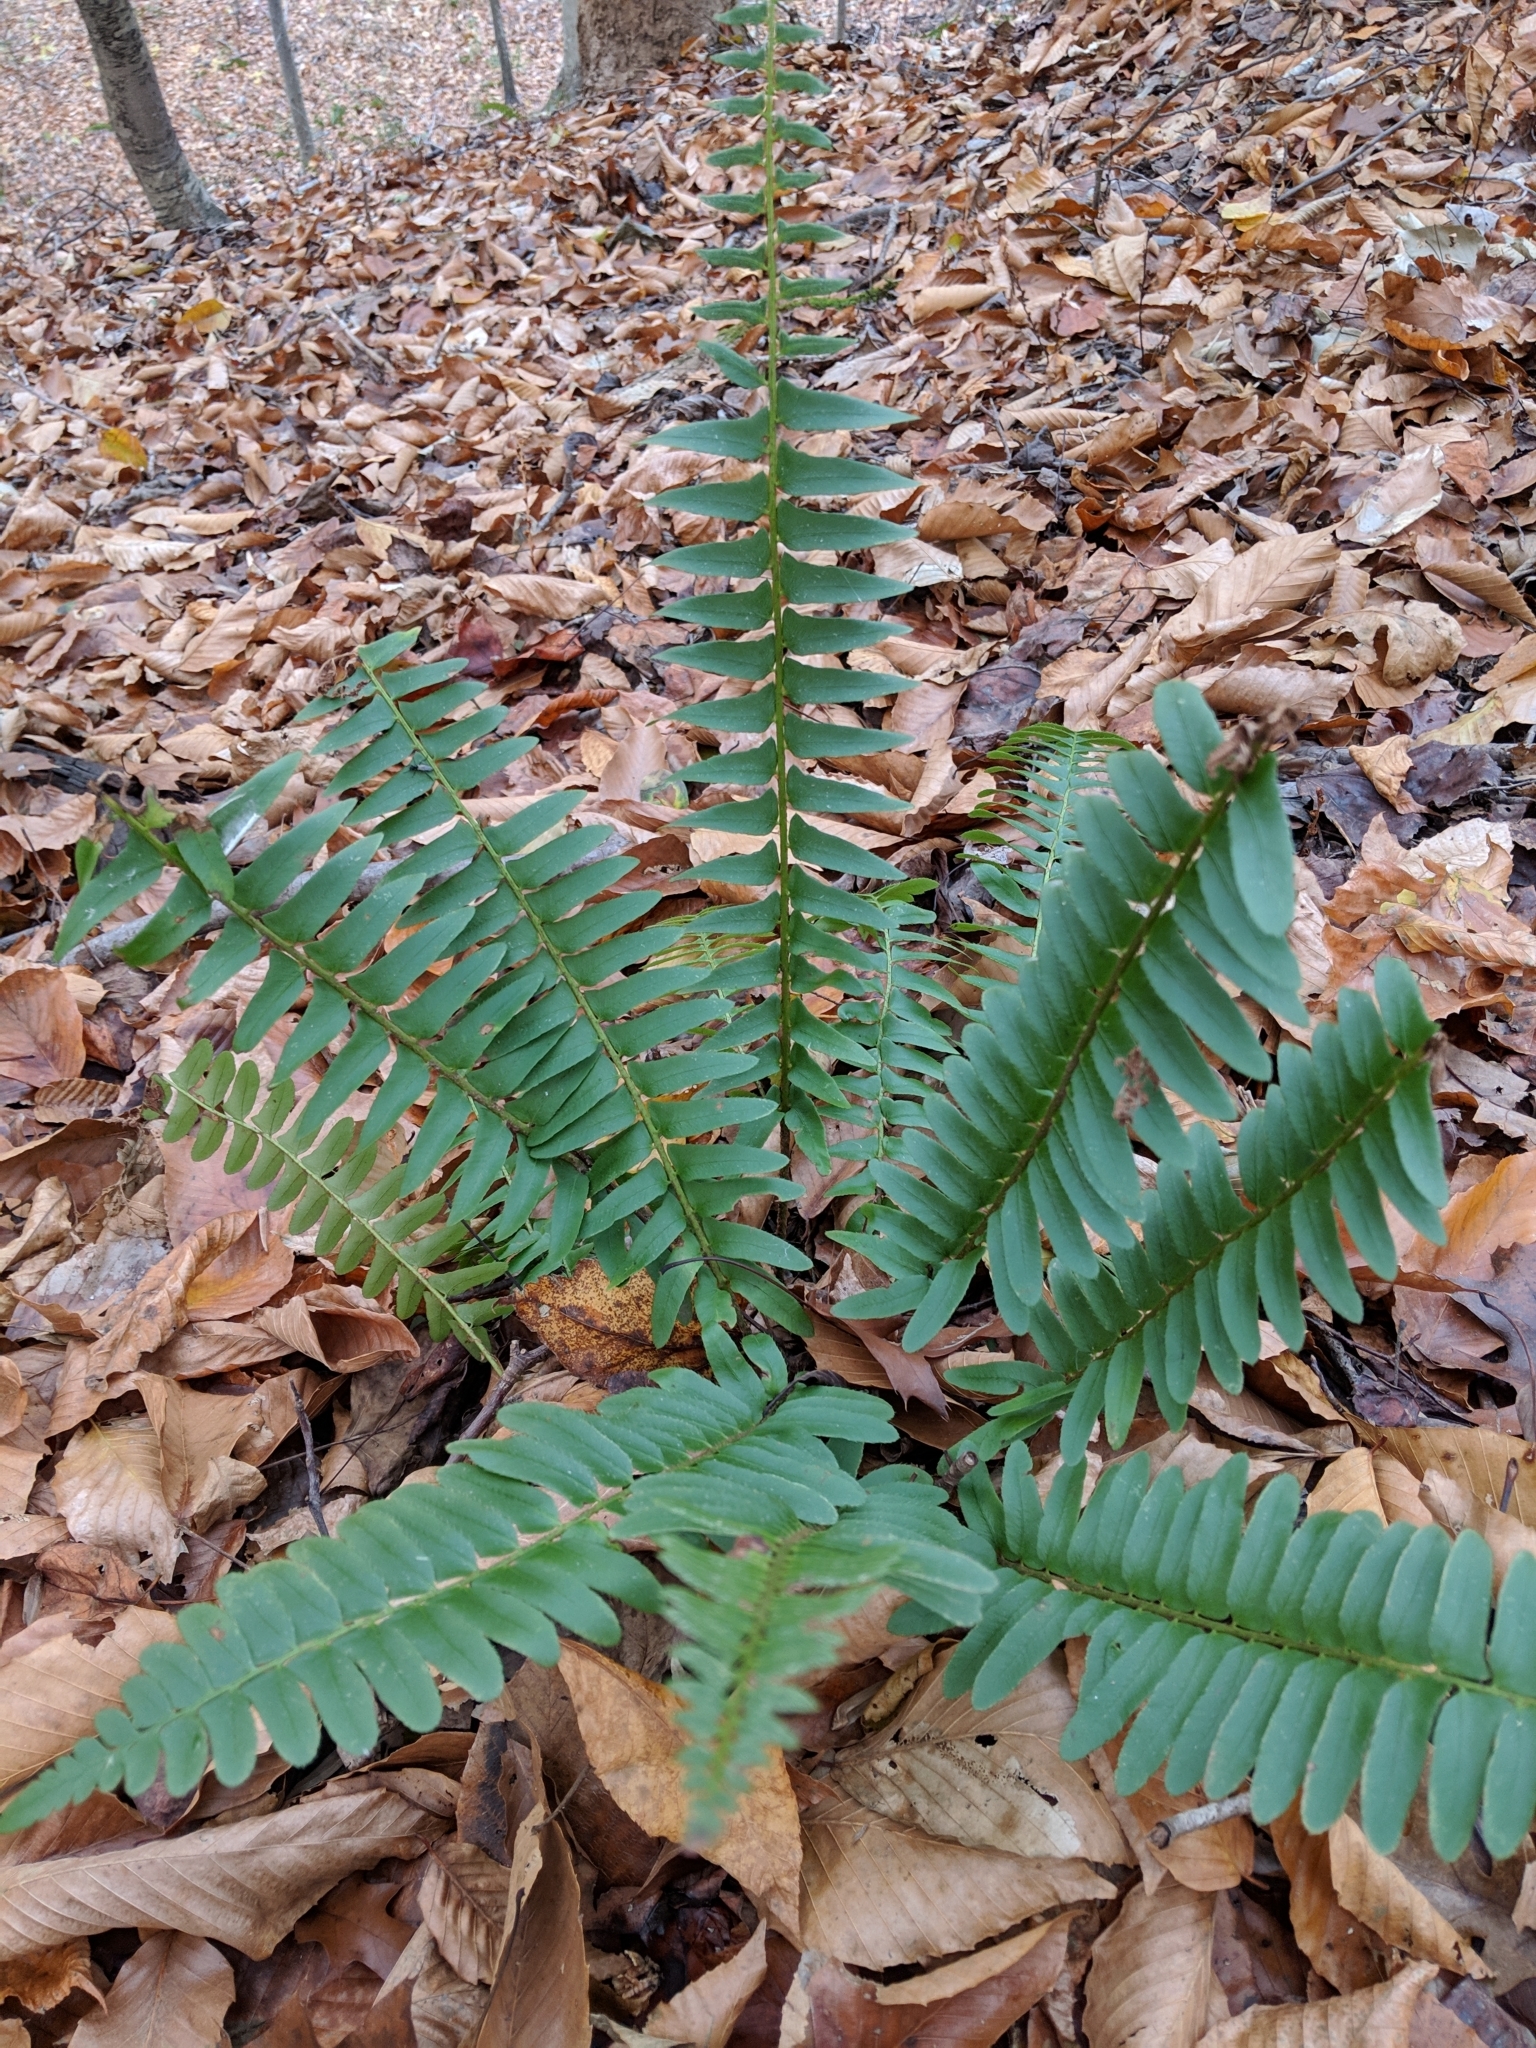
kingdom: Plantae
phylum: Tracheophyta
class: Polypodiopsida
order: Polypodiales
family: Dryopteridaceae
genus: Polystichum
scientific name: Polystichum acrostichoides
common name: Christmas fern
